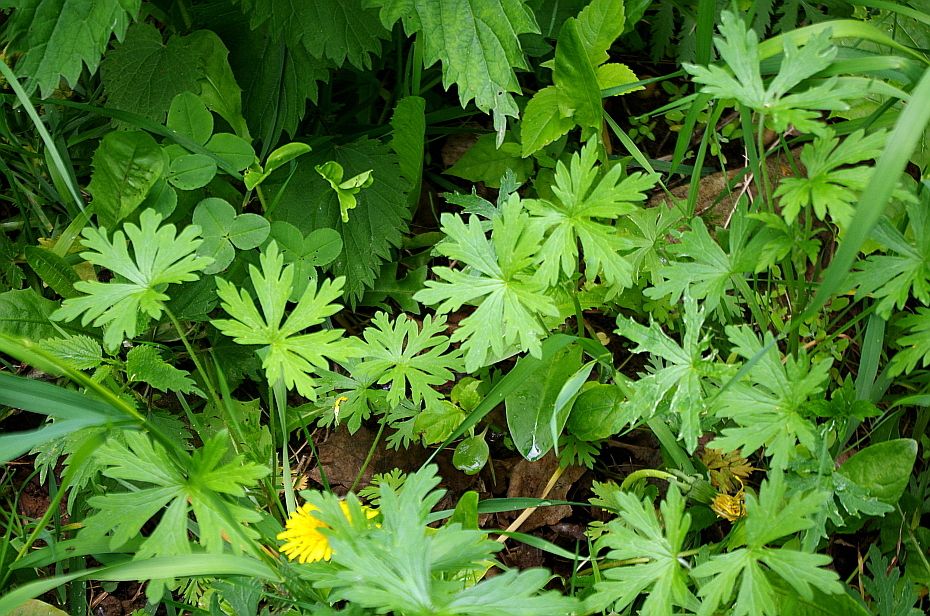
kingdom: Plantae
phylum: Tracheophyta
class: Magnoliopsida
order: Geraniales
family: Geraniaceae
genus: Geranium
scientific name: Geranium sibiricum
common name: Siberian crane's-bill
